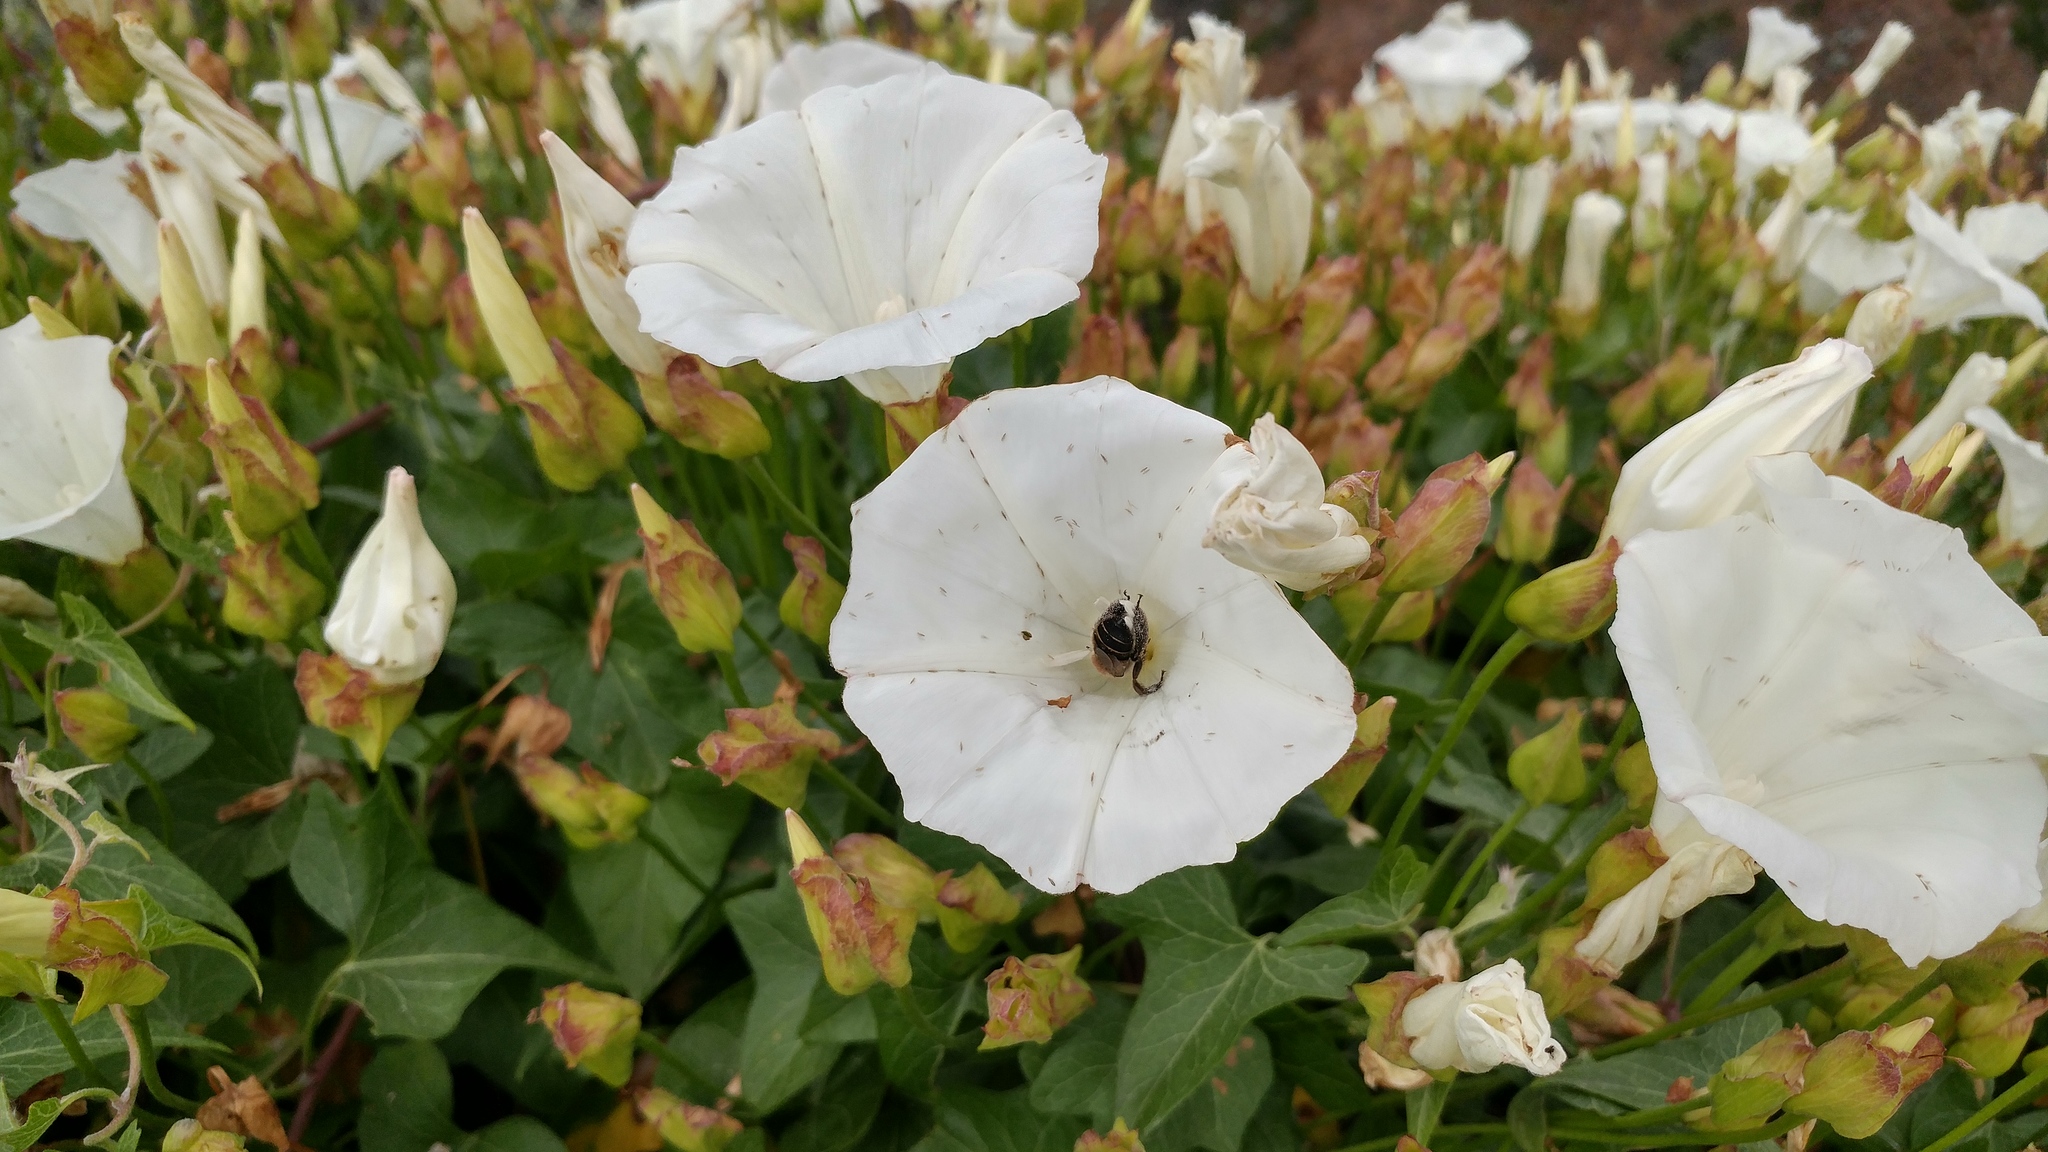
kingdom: Animalia
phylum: Arthropoda
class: Insecta
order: Hymenoptera
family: Apidae
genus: Diadasia
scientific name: Diadasia bituberculata
